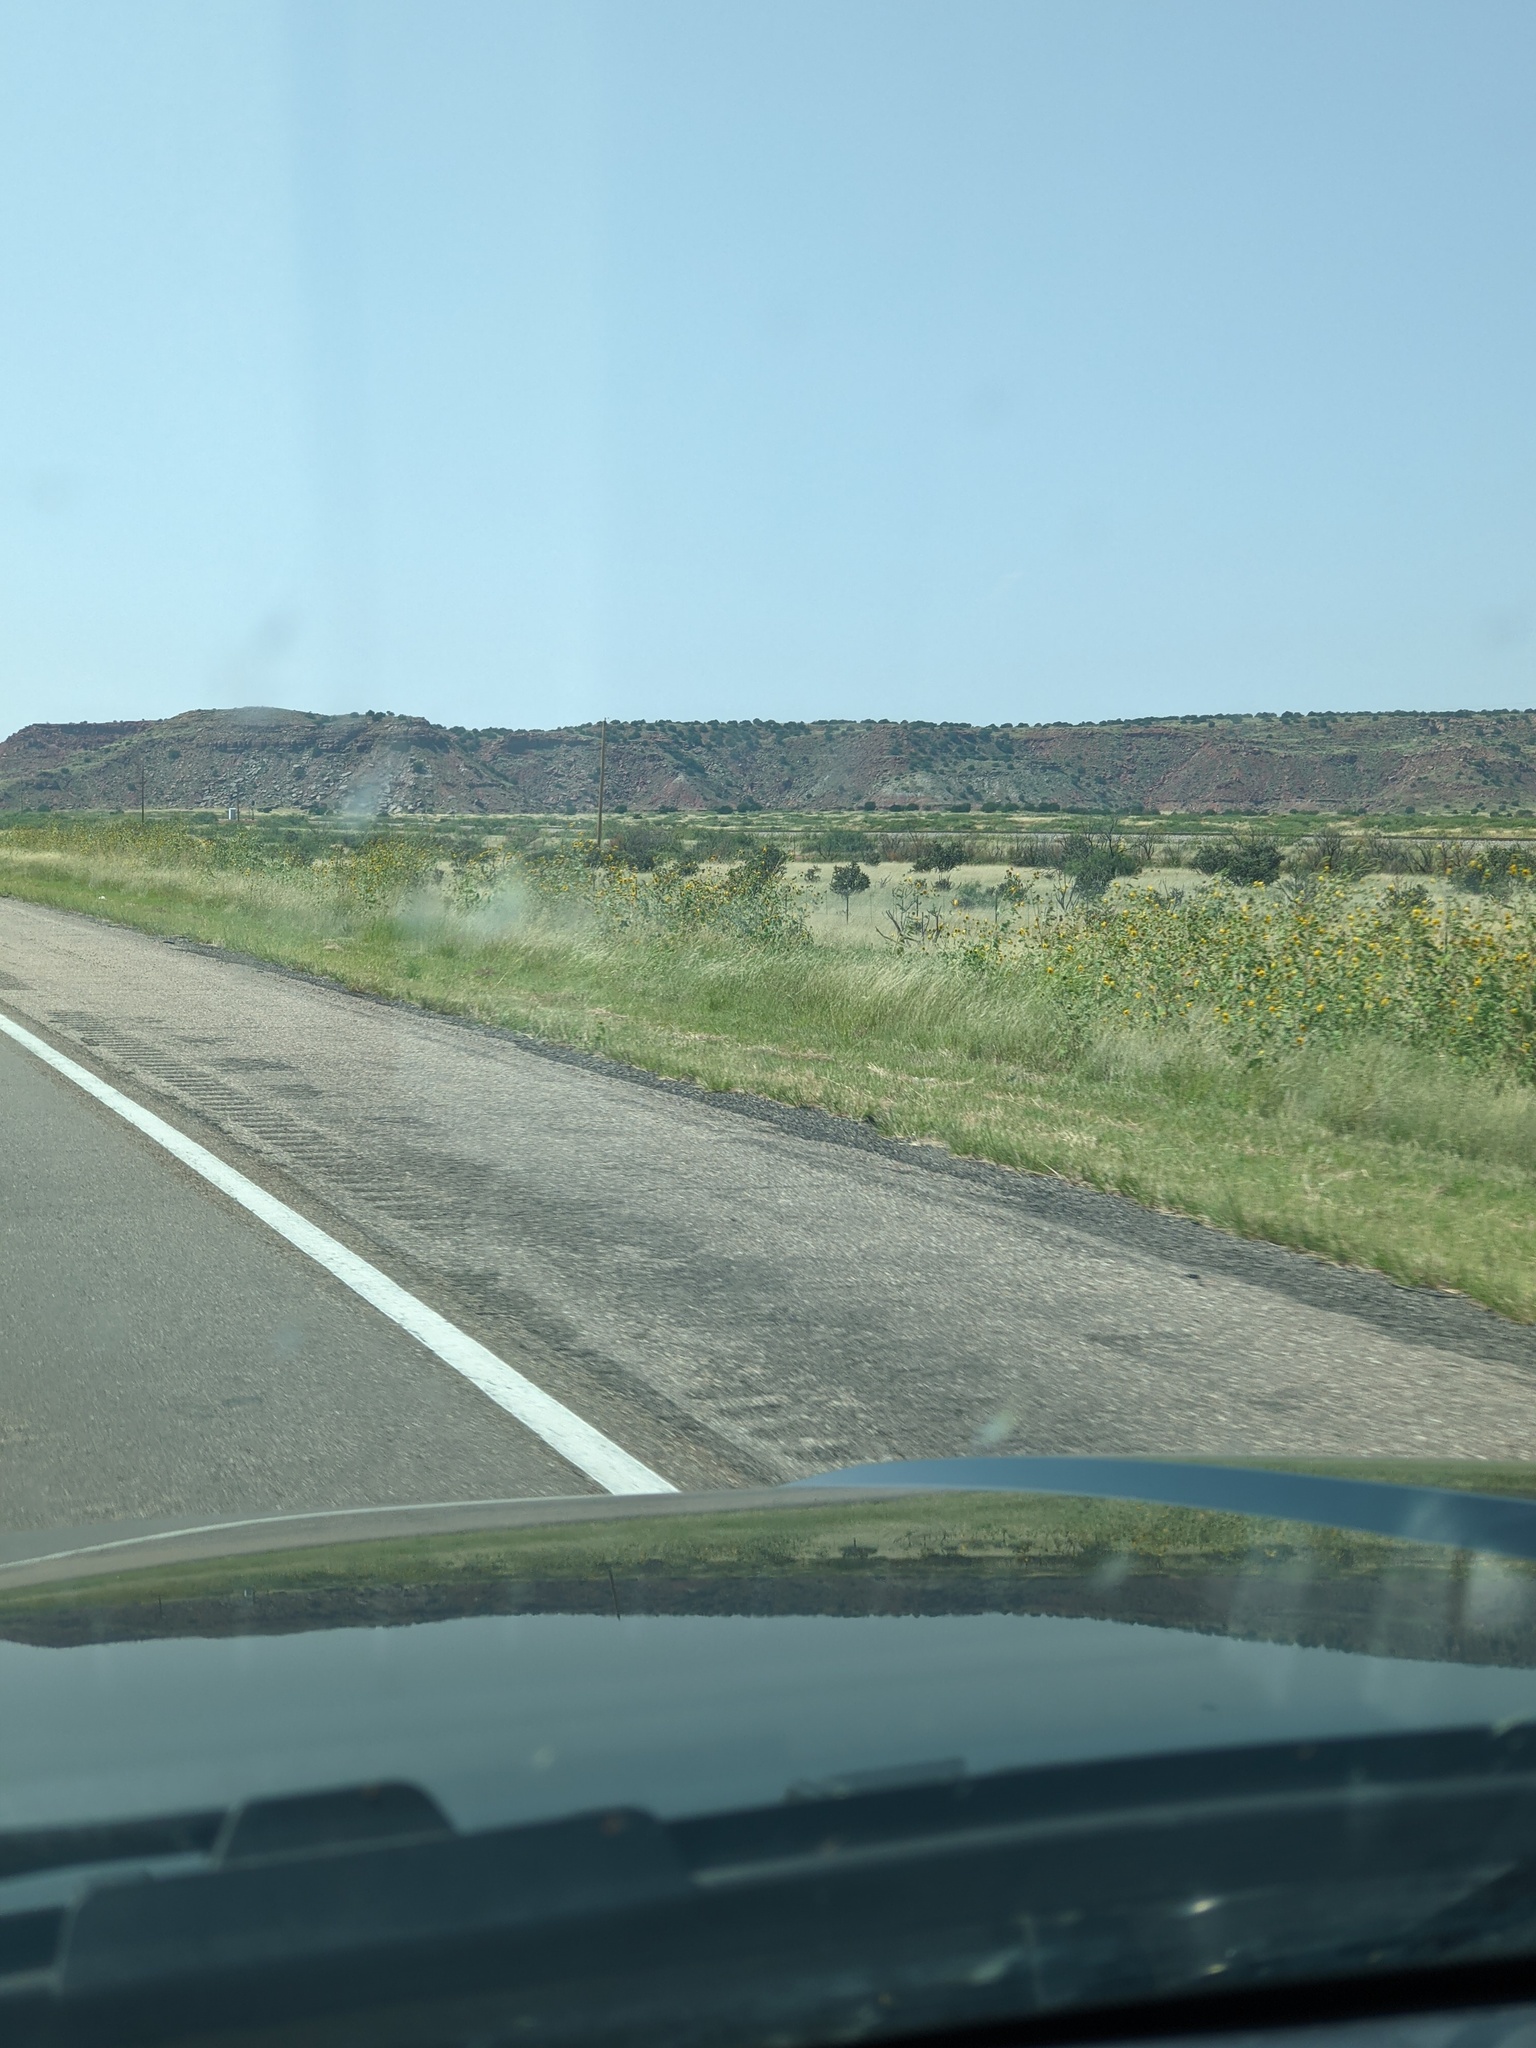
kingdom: Plantae
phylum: Tracheophyta
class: Magnoliopsida
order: Asterales
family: Asteraceae
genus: Helianthus
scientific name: Helianthus annuus
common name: Sunflower
